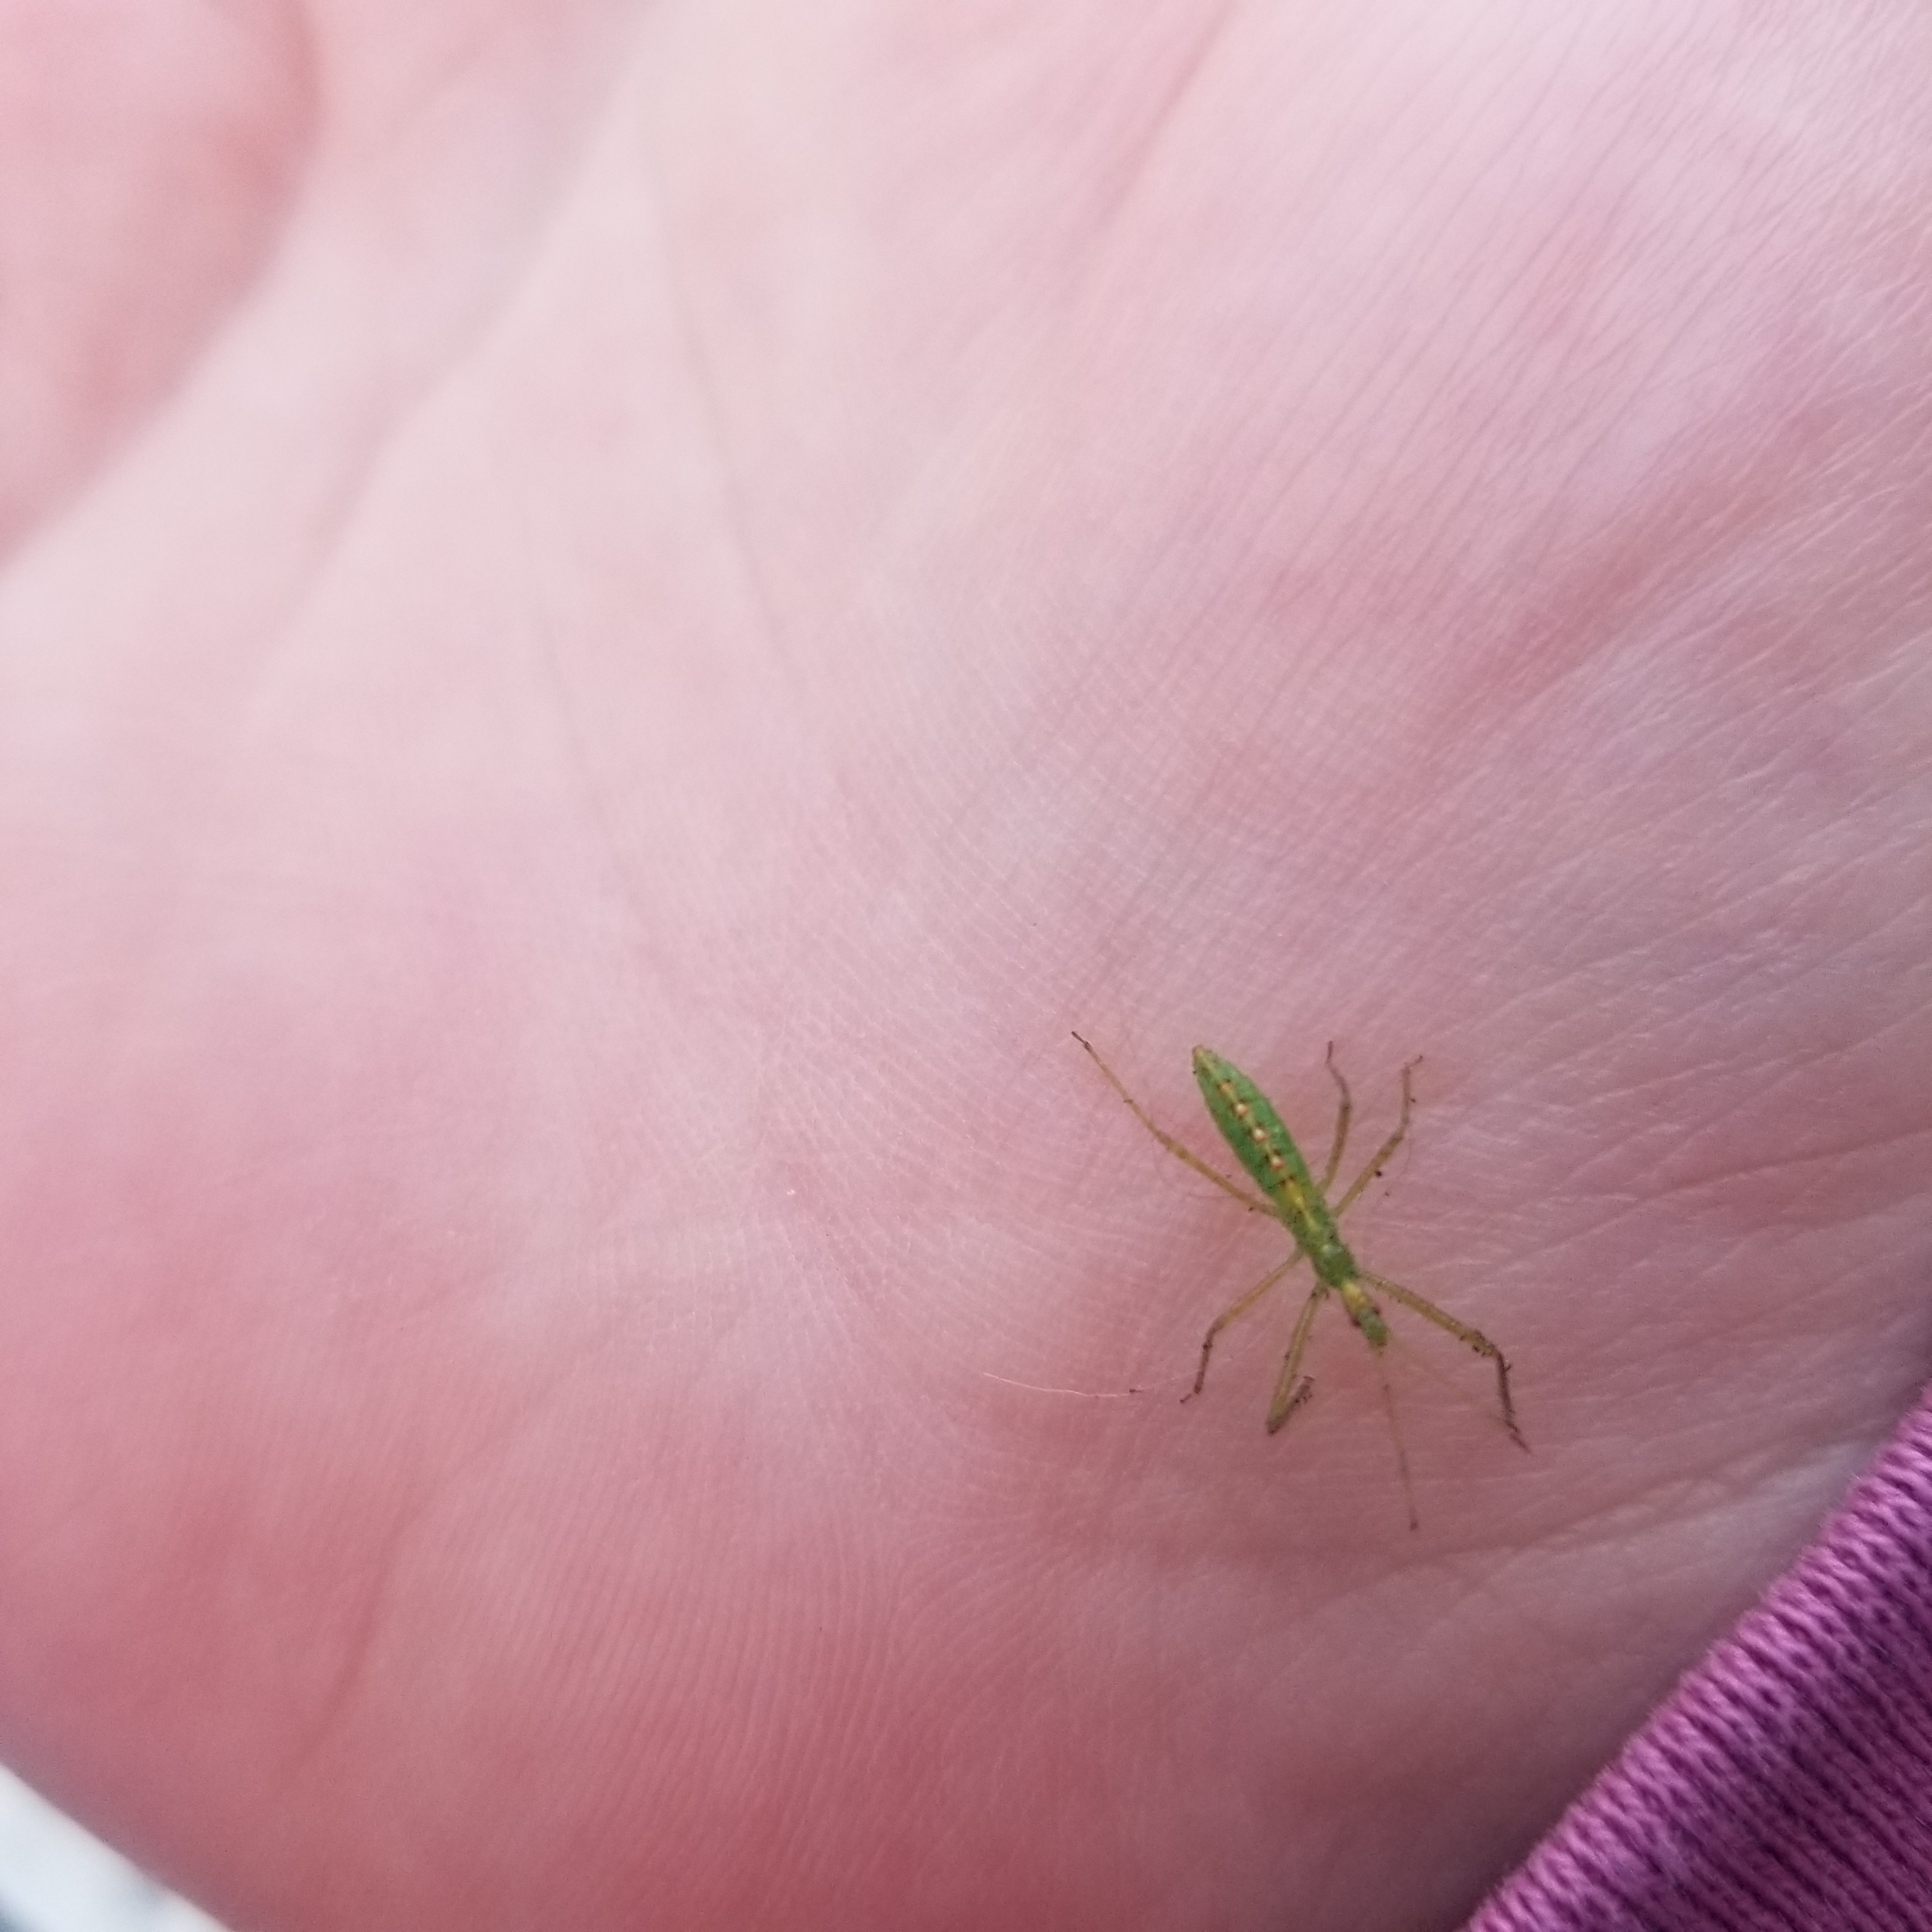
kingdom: Animalia
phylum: Arthropoda
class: Insecta
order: Hemiptera
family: Reduviidae
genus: Zelus
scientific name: Zelus luridus
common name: Pale green assassin bug
